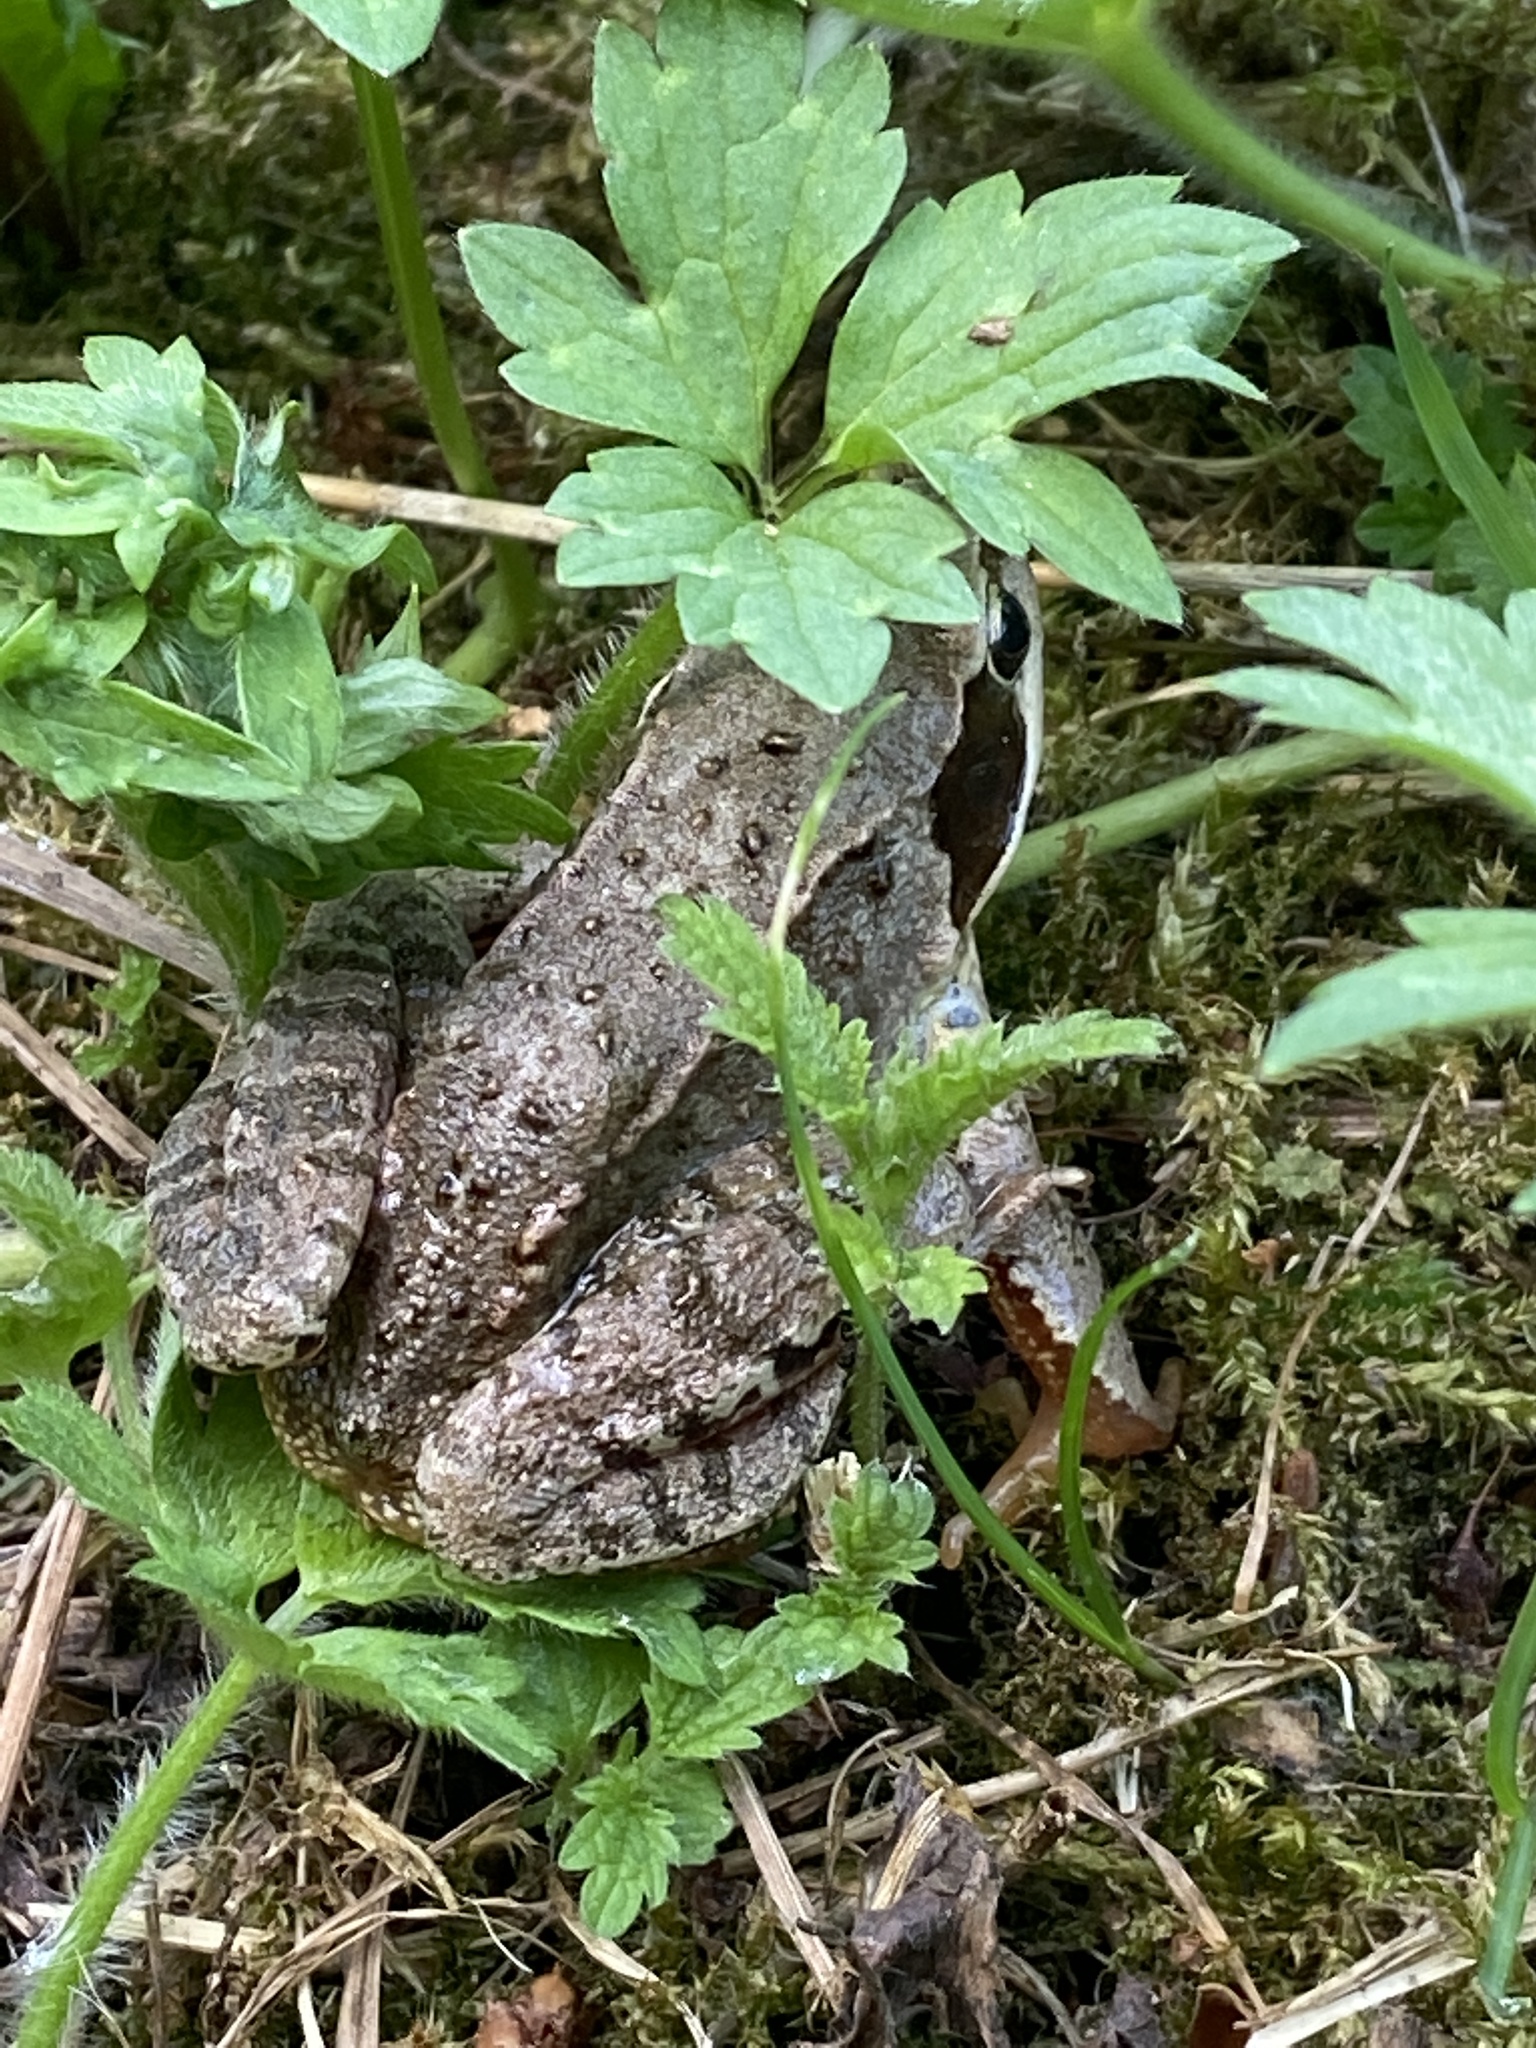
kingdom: Animalia
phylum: Chordata
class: Amphibia
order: Anura
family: Ranidae
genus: Rana
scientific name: Rana arvalis
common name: Moor frog
